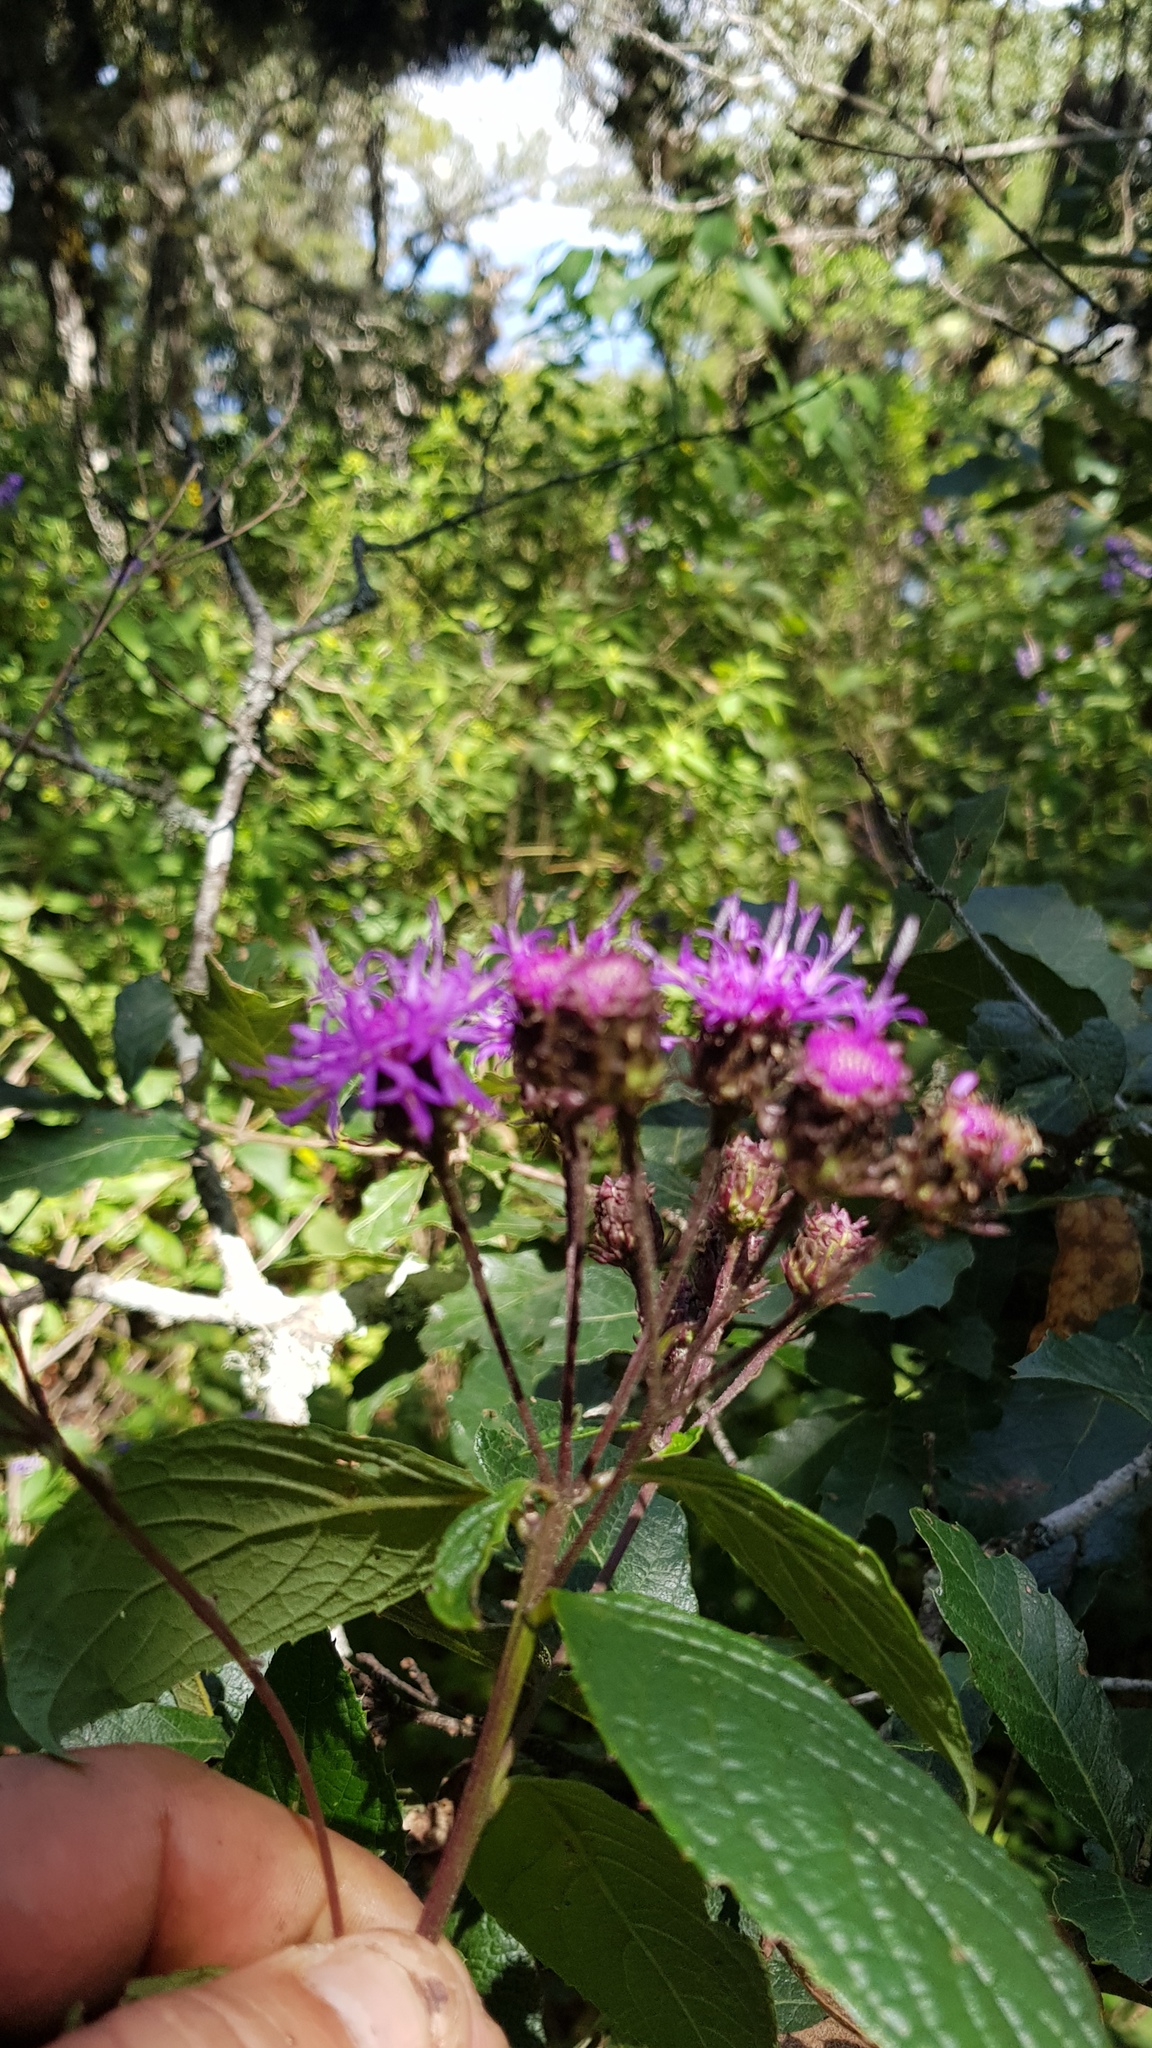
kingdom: Plantae
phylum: Tracheophyta
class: Magnoliopsida
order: Asterales
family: Asteraceae
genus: Vernonia
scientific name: Vernonia karvinskiana
